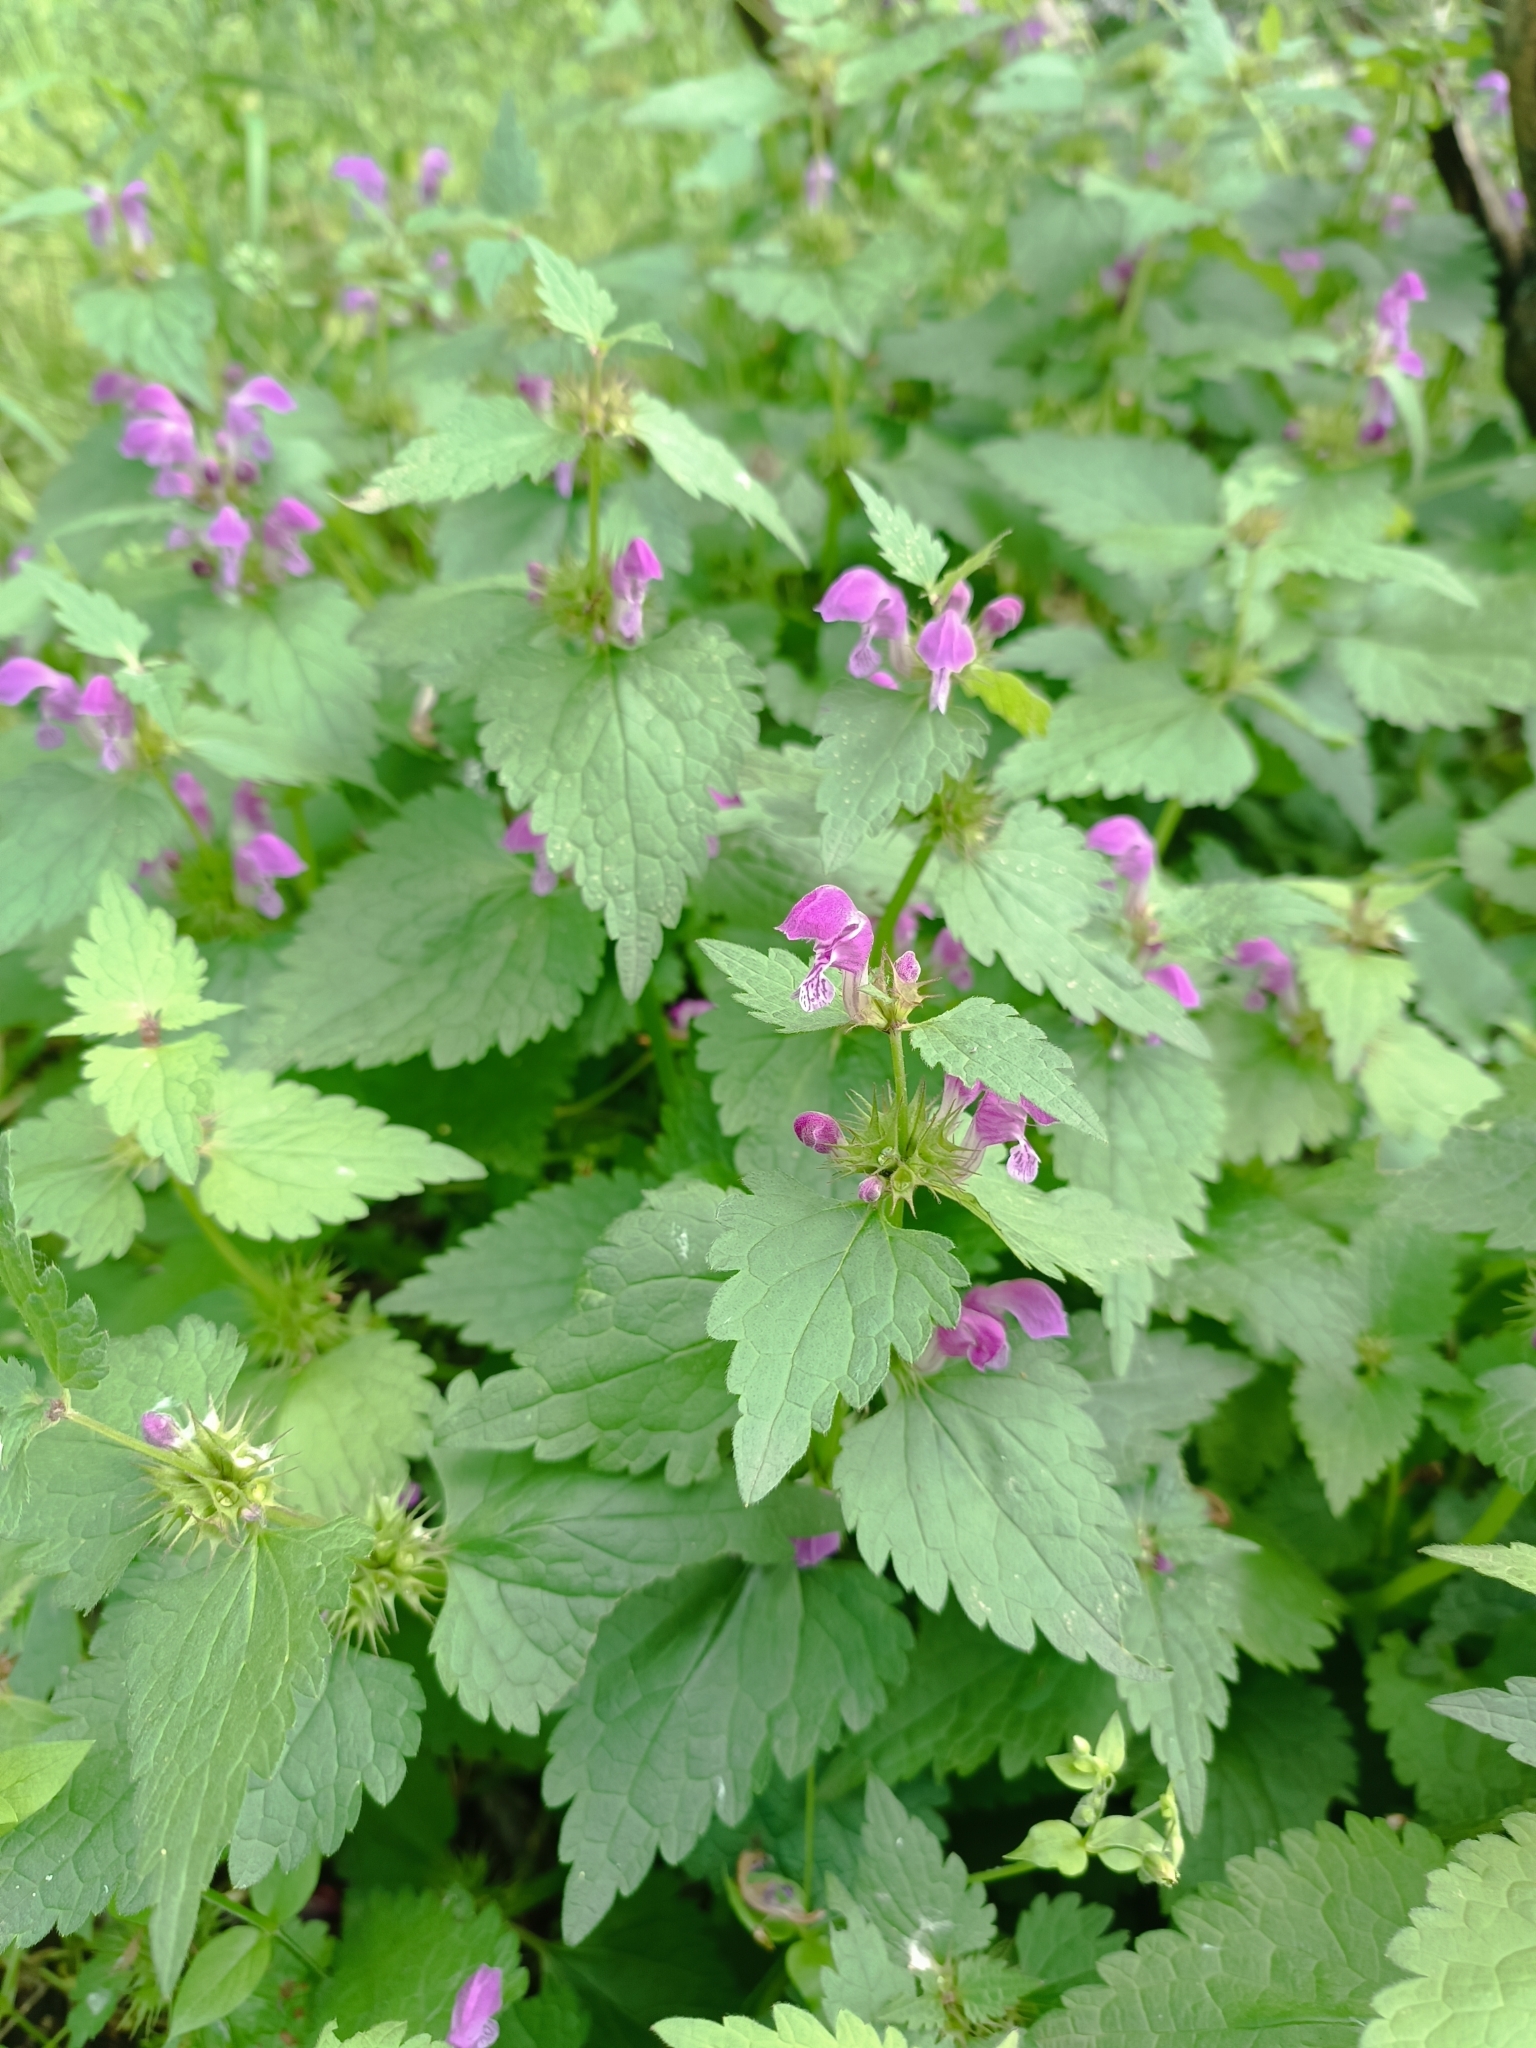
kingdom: Plantae
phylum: Tracheophyta
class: Magnoliopsida
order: Lamiales
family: Lamiaceae
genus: Lamium
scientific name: Lamium maculatum
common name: Spotted dead-nettle
